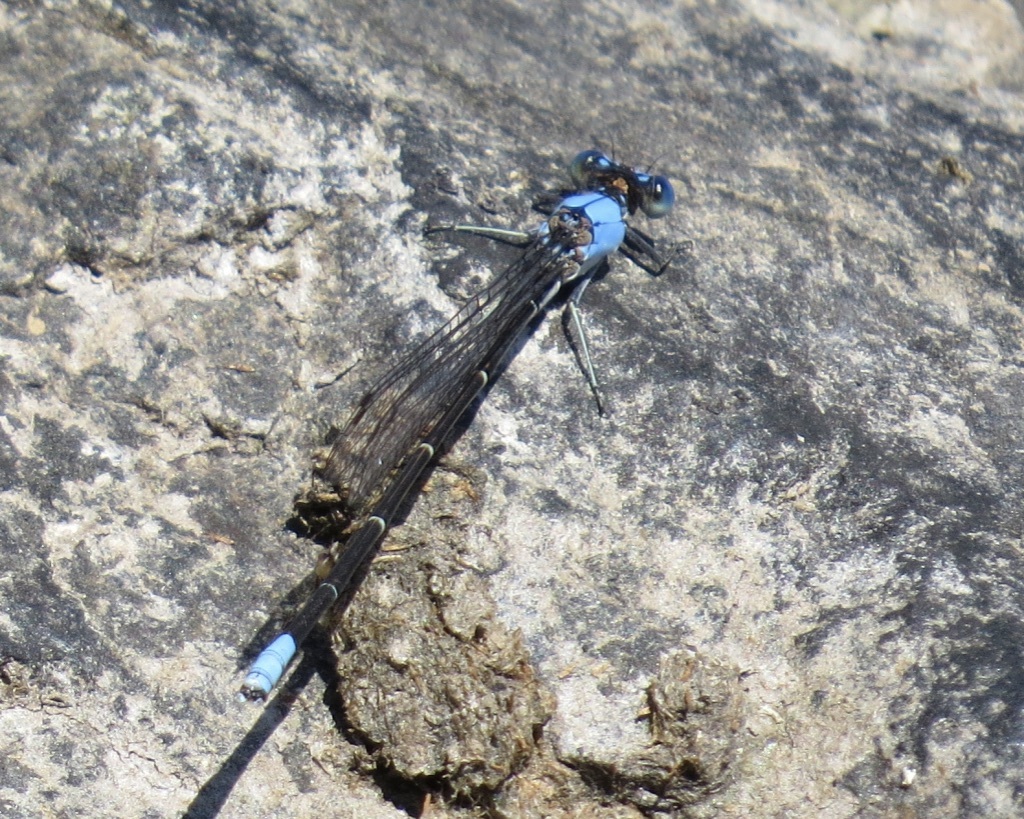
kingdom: Animalia
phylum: Arthropoda
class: Insecta
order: Odonata
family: Coenagrionidae
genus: Argia
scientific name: Argia apicalis
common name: Blue-fronted dancer
